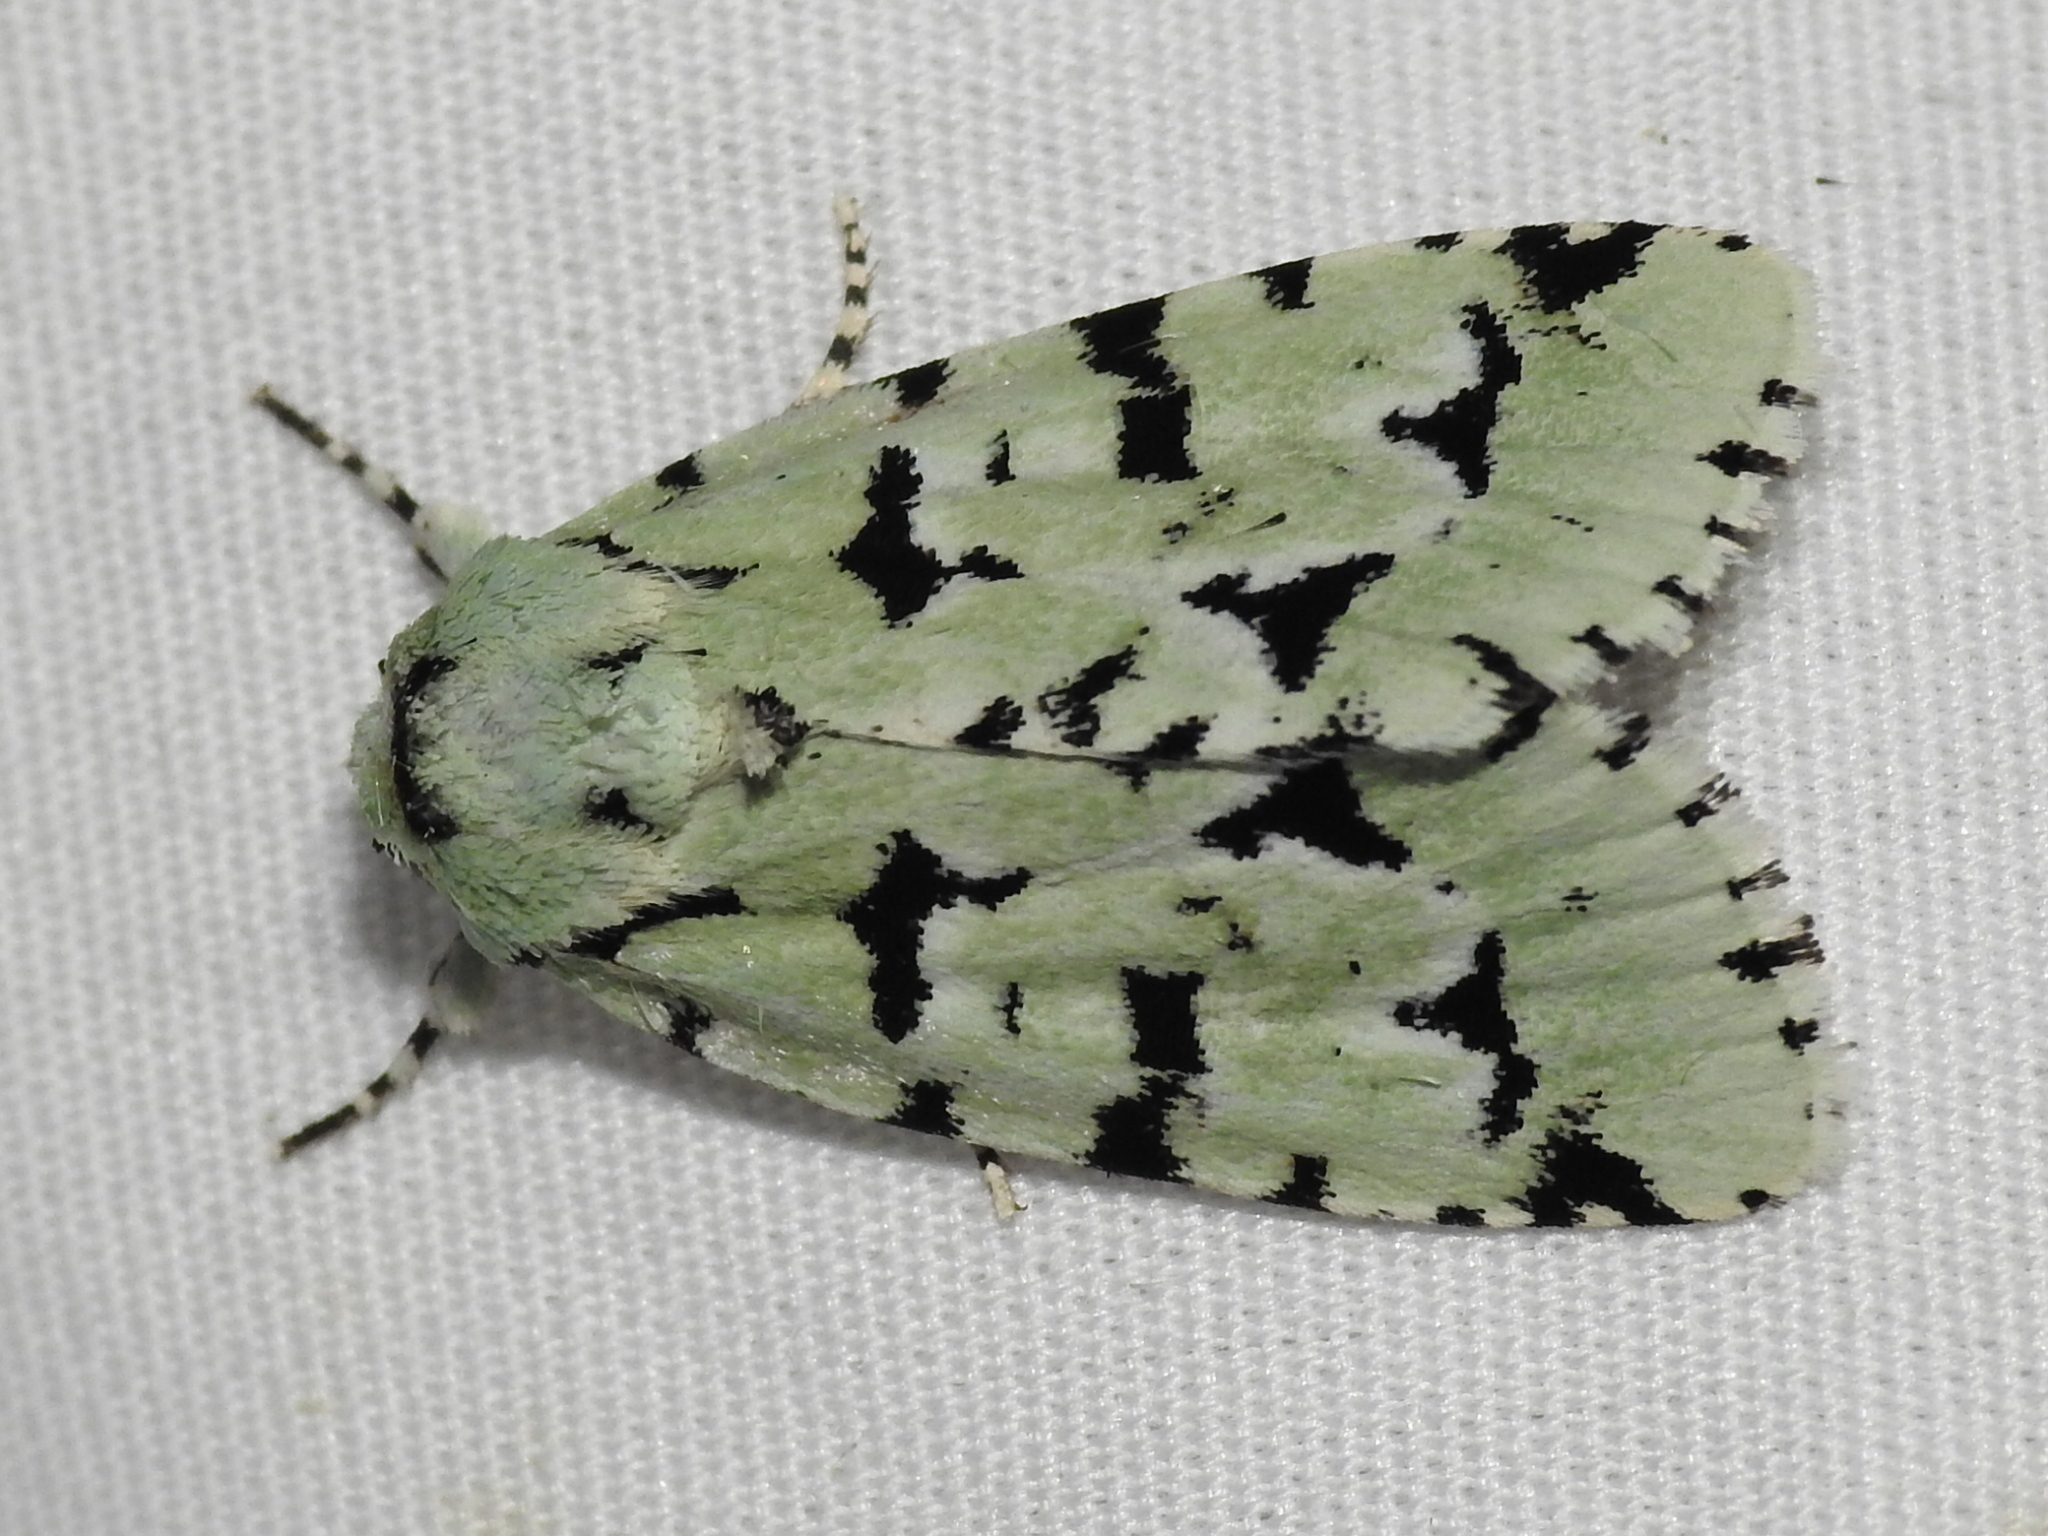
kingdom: Animalia
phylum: Arthropoda
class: Insecta
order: Lepidoptera
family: Noctuidae
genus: Acronicta
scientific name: Acronicta fallax
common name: Green marvel
